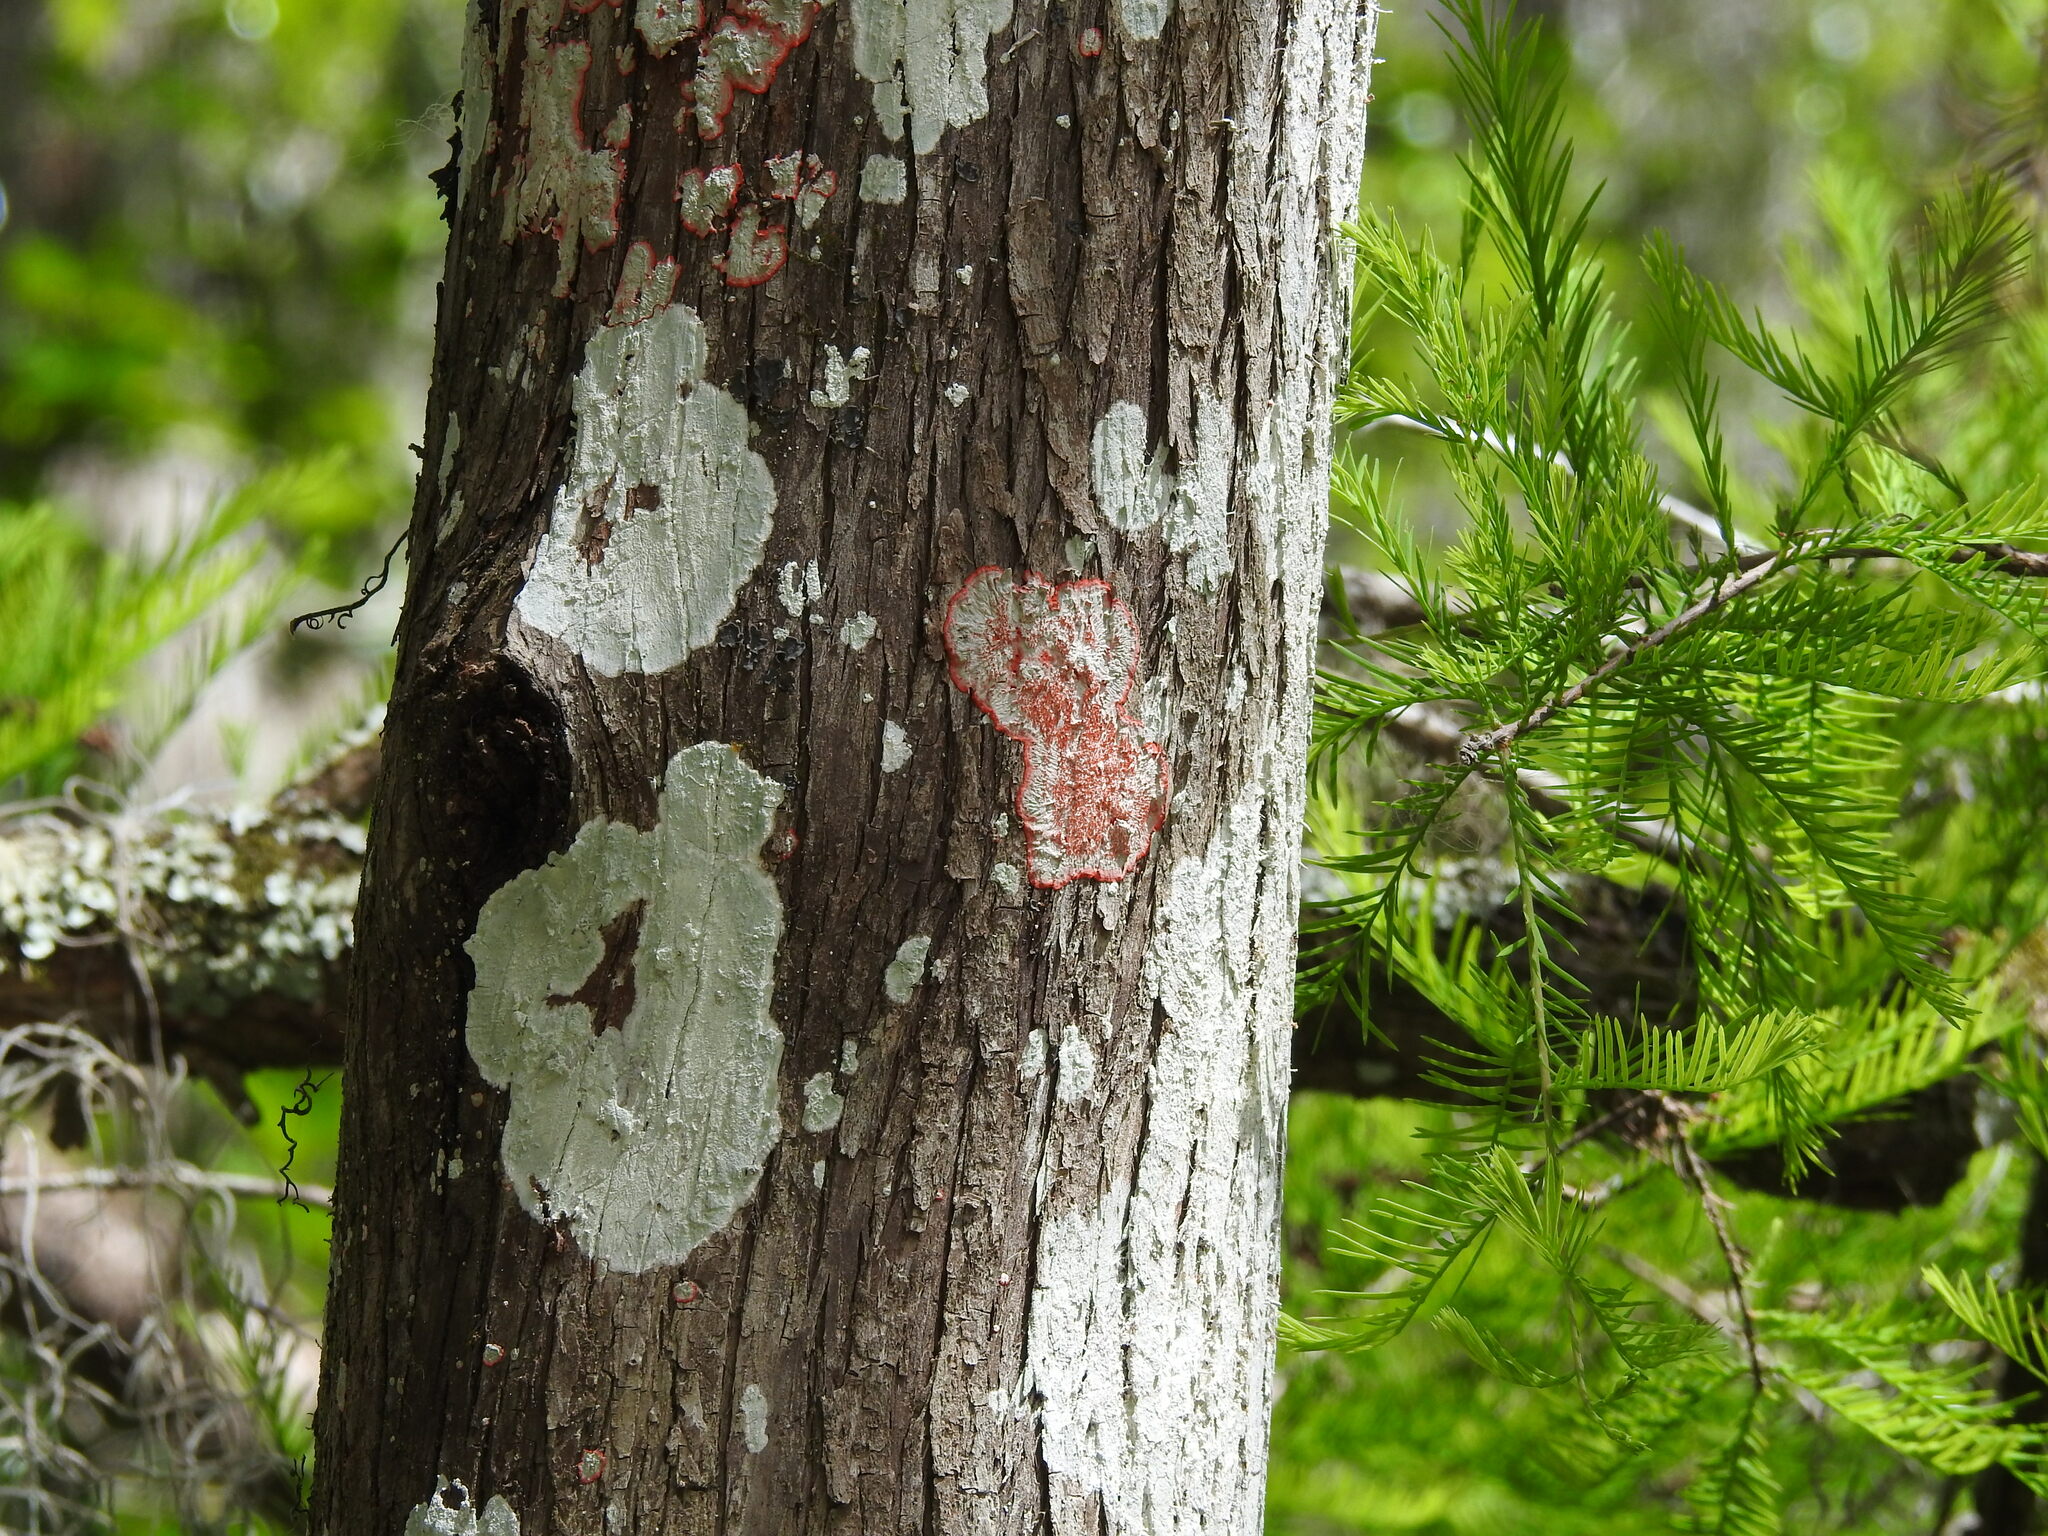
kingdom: Fungi
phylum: Ascomycota
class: Arthoniomycetes
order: Arthoniales
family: Arthoniaceae
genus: Herpothallon
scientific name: Herpothallon rubrocinctum
